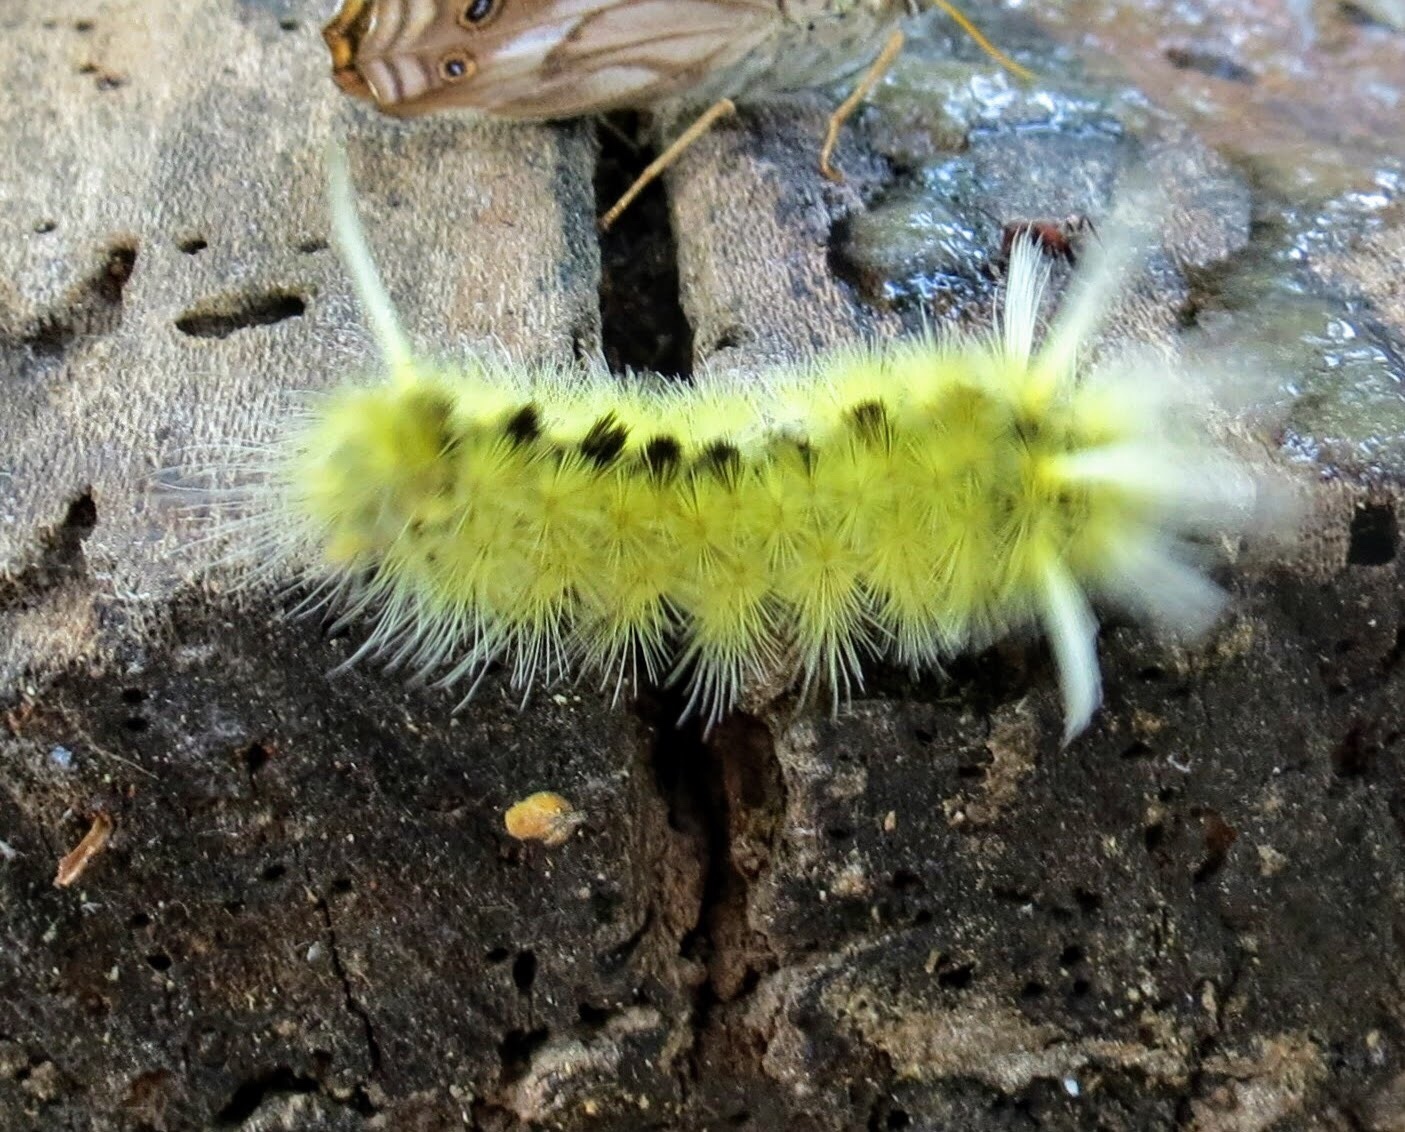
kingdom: Animalia
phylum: Arthropoda
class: Insecta
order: Lepidoptera
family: Erebidae
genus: Halysidota
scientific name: Halysidota schausi
